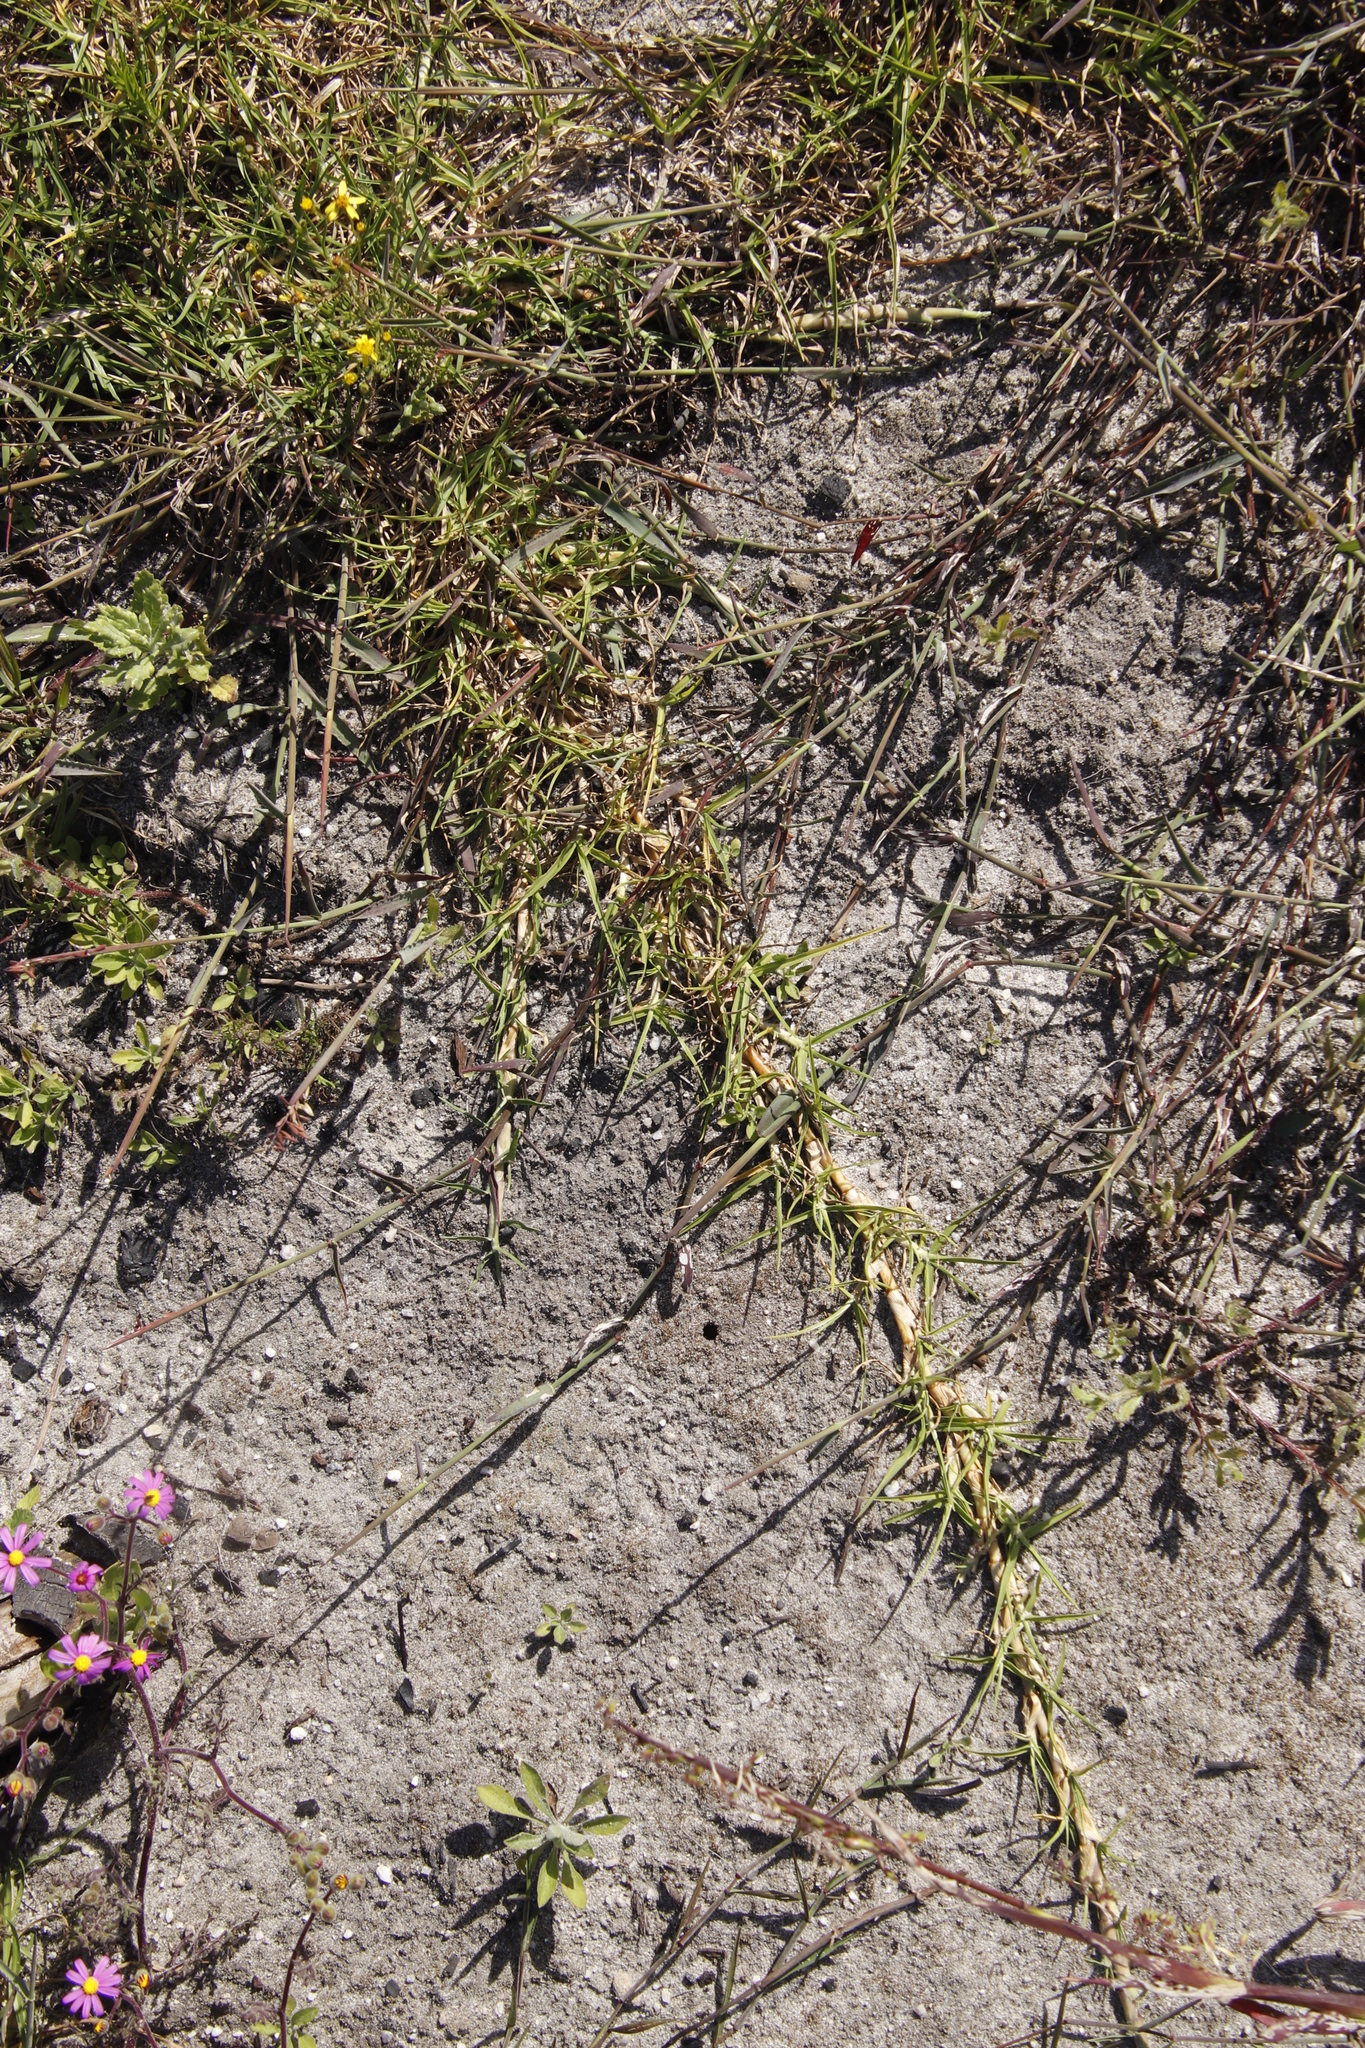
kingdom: Plantae
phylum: Tracheophyta
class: Liliopsida
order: Poales
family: Poaceae
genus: Cenchrus
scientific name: Cenchrus clandestinus
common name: Kikuyugrass
